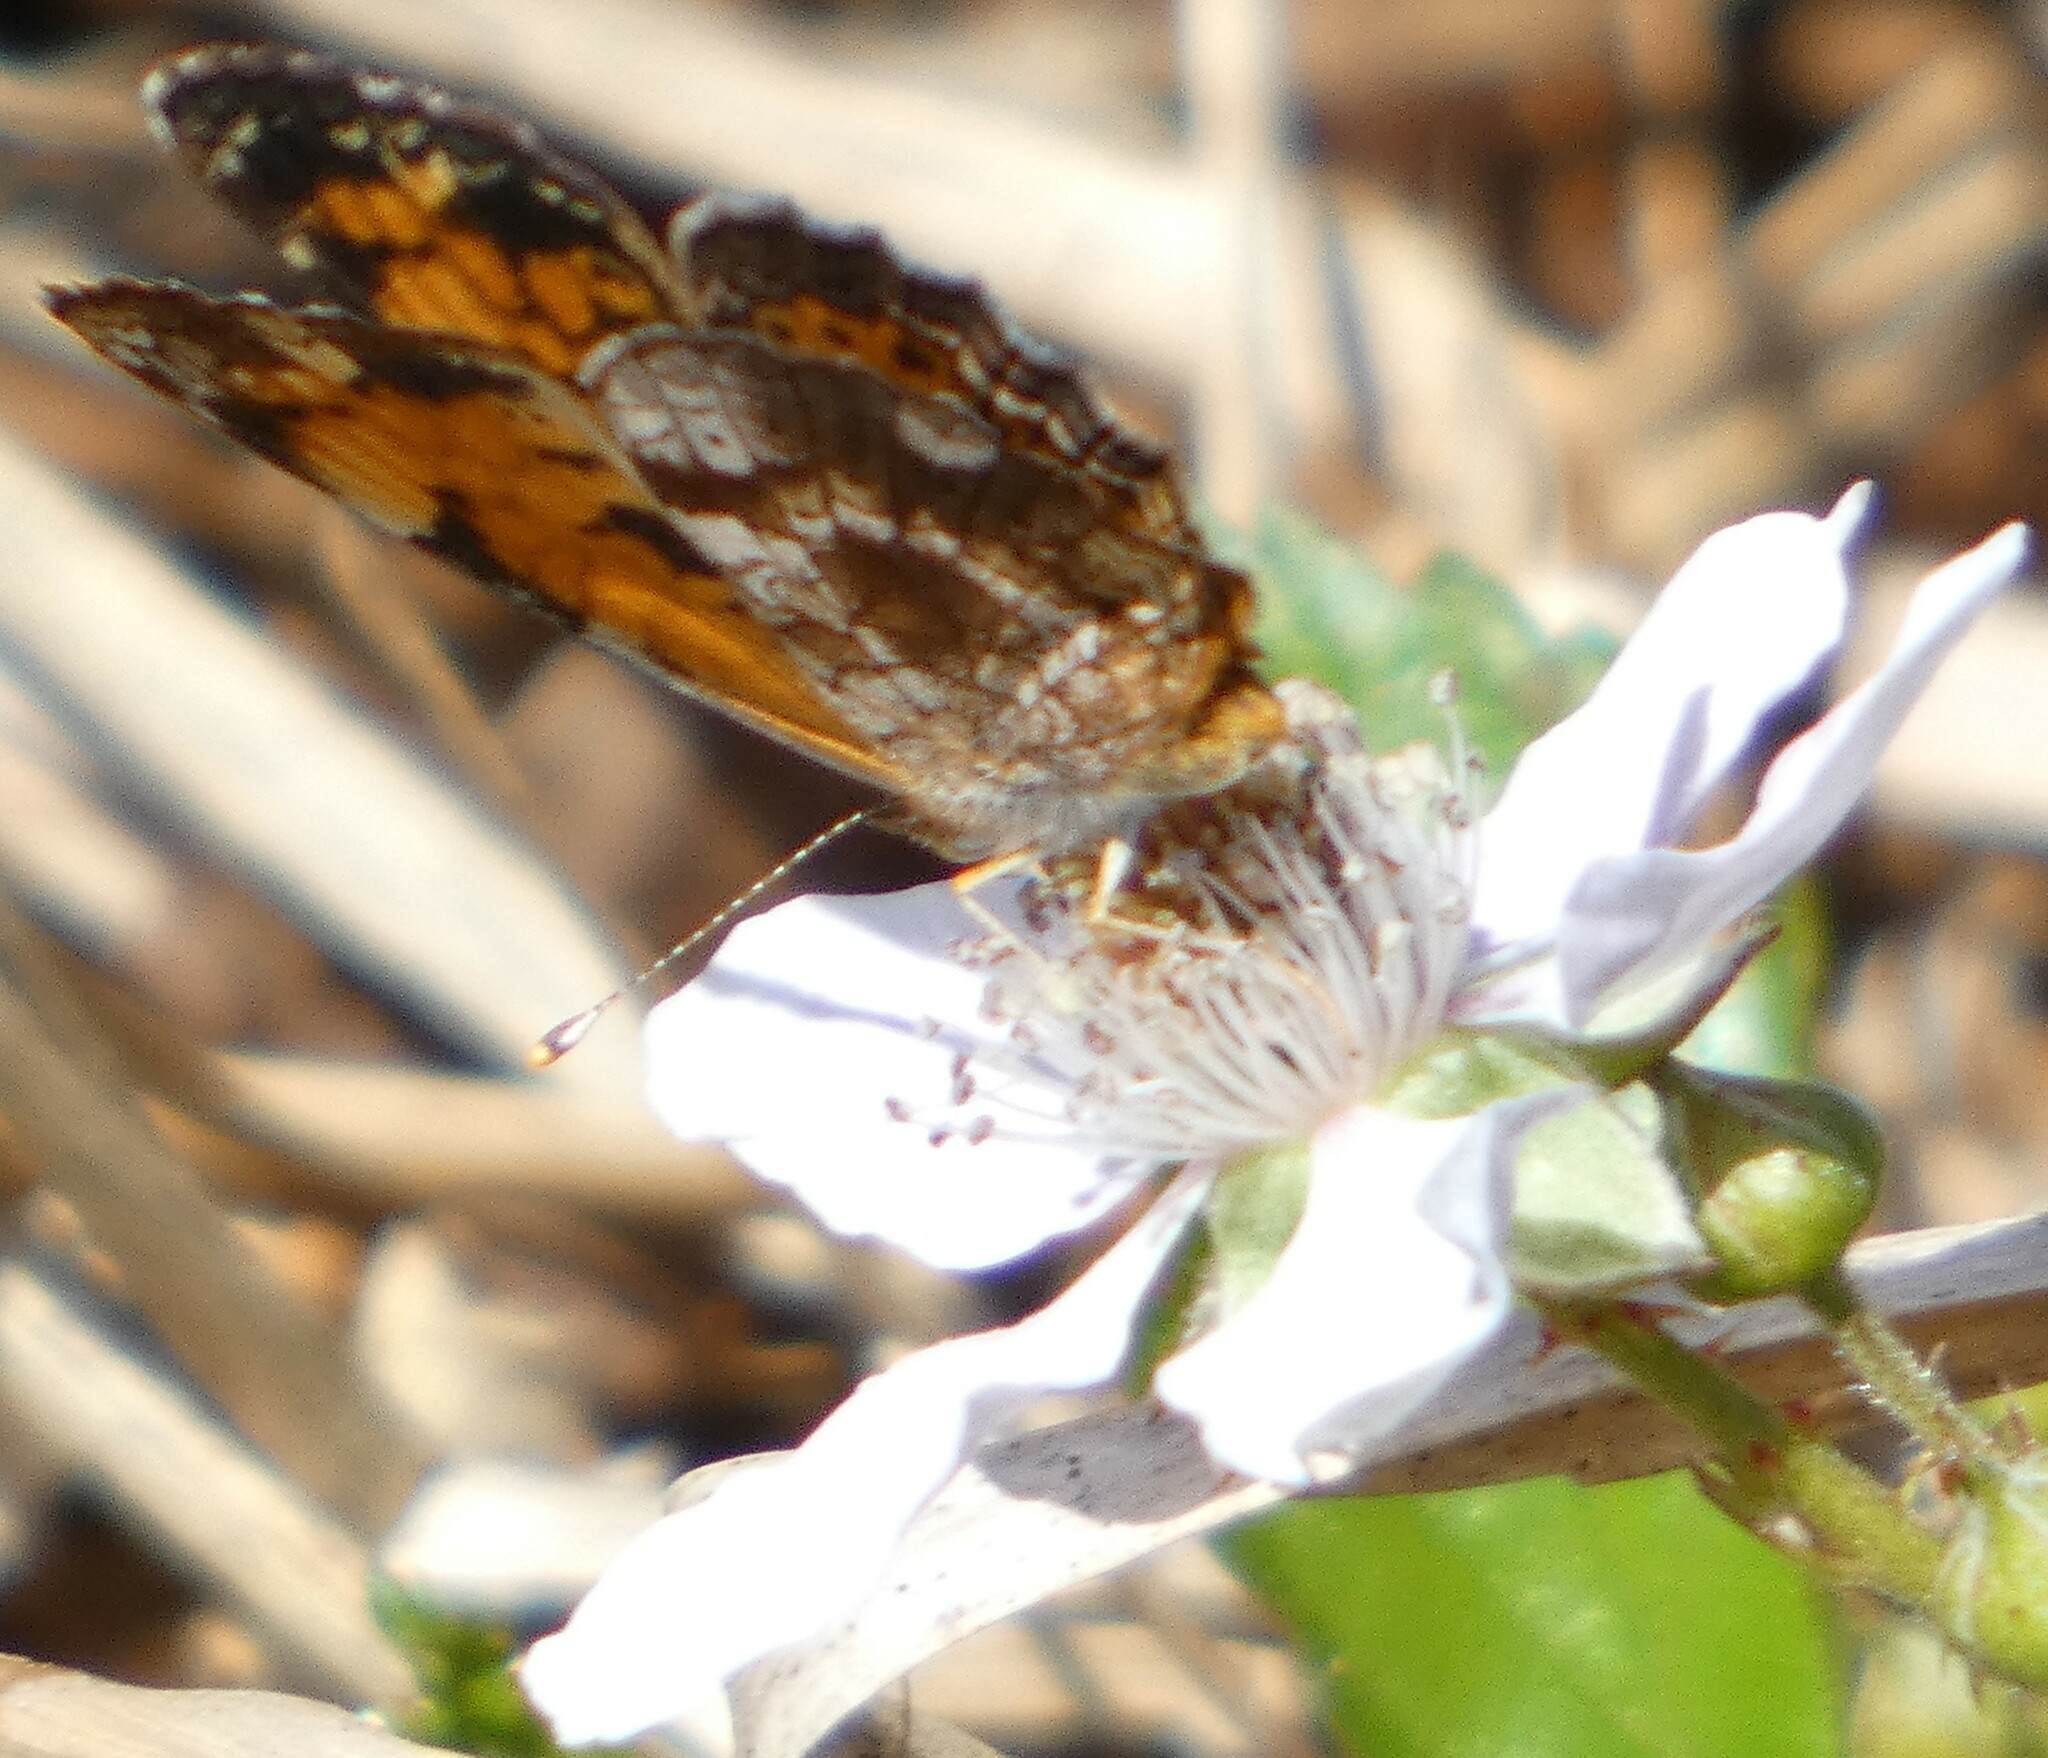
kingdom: Animalia
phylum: Arthropoda
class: Insecta
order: Lepidoptera
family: Nymphalidae
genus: Phyciodes
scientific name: Phyciodes tharos
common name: Pearl crescent
